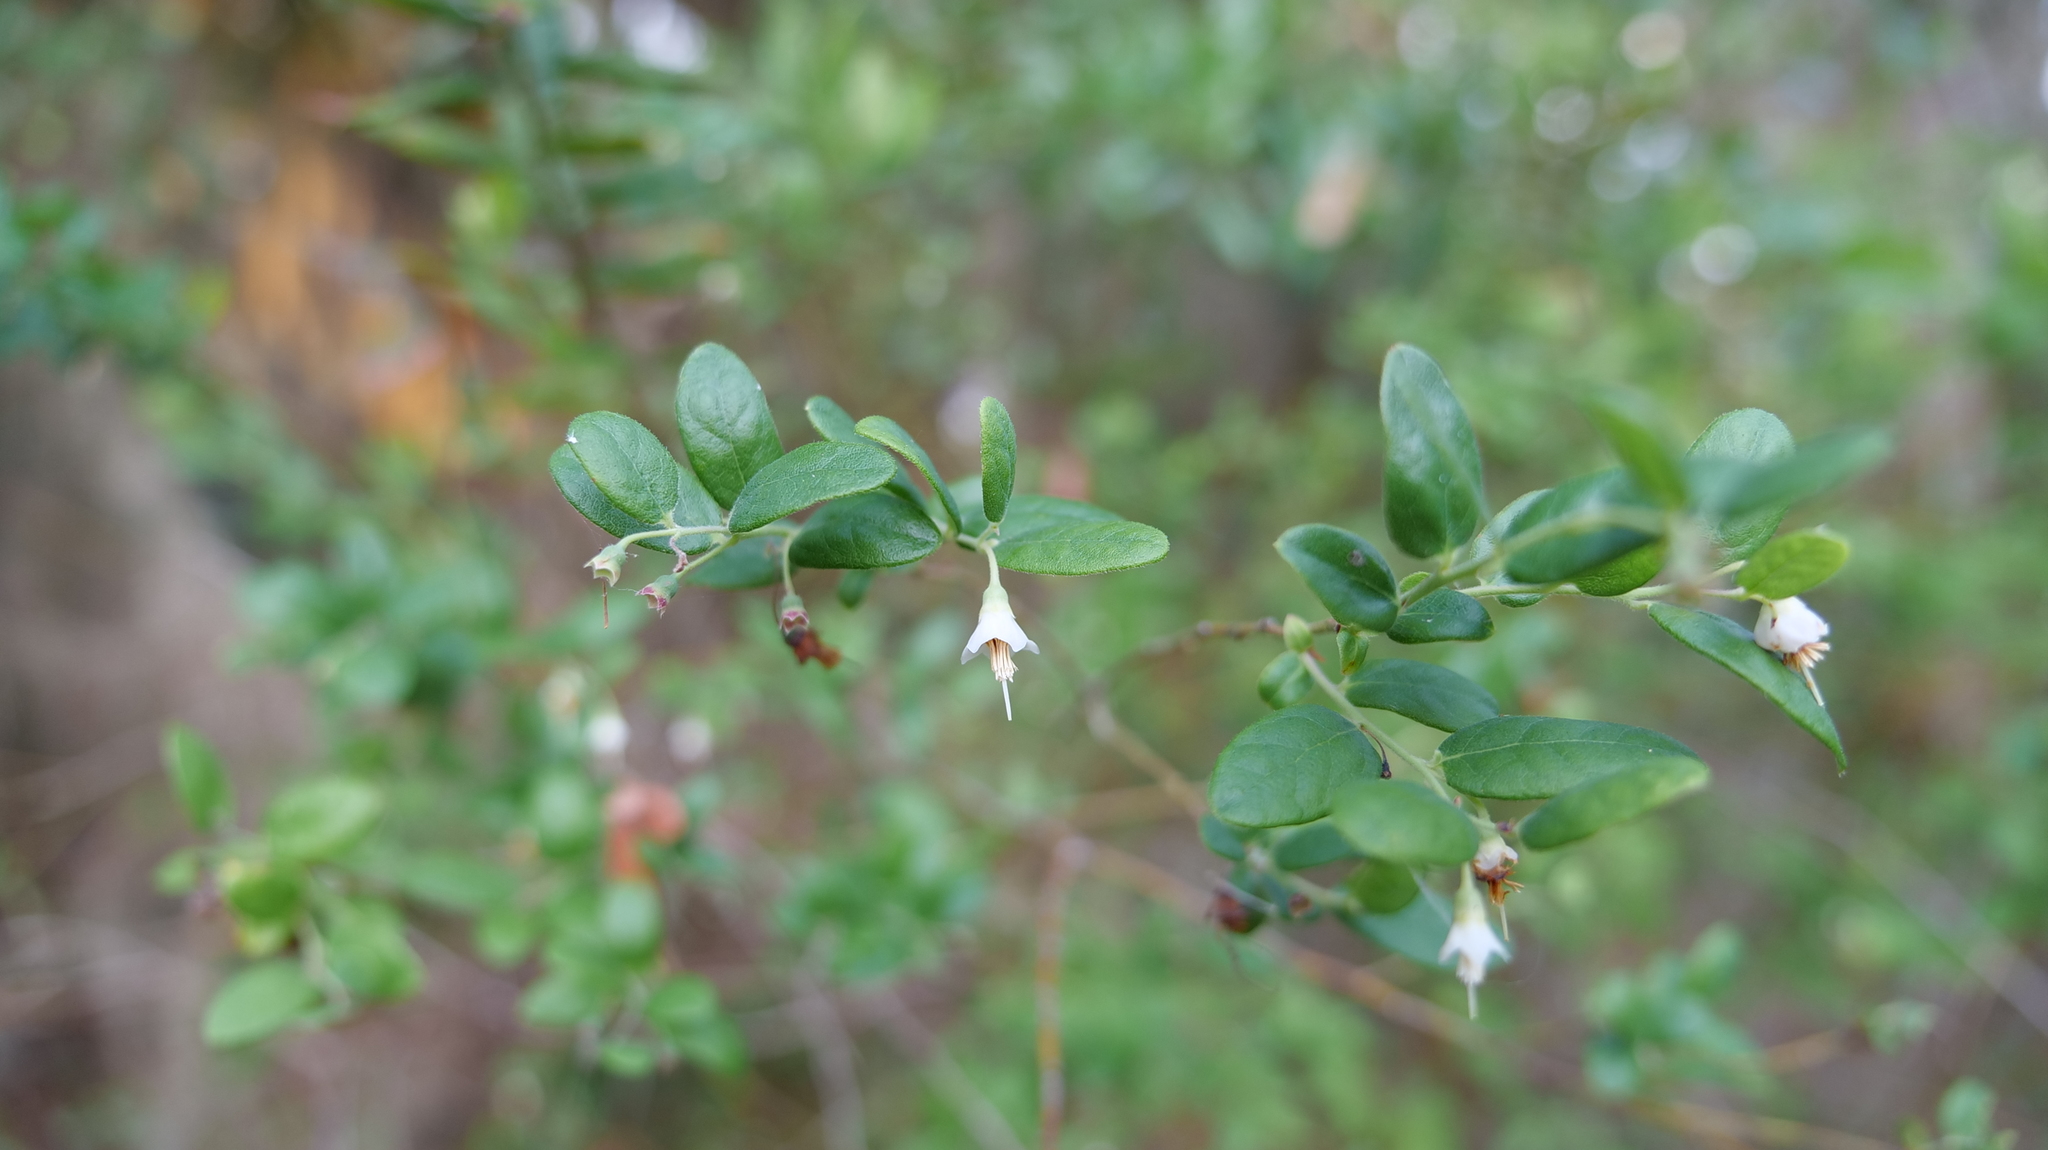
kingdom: Plantae
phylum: Tracheophyta
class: Magnoliopsida
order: Ericales
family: Ericaceae
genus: Vaccinium
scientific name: Vaccinium stamineum
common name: Deerberry
